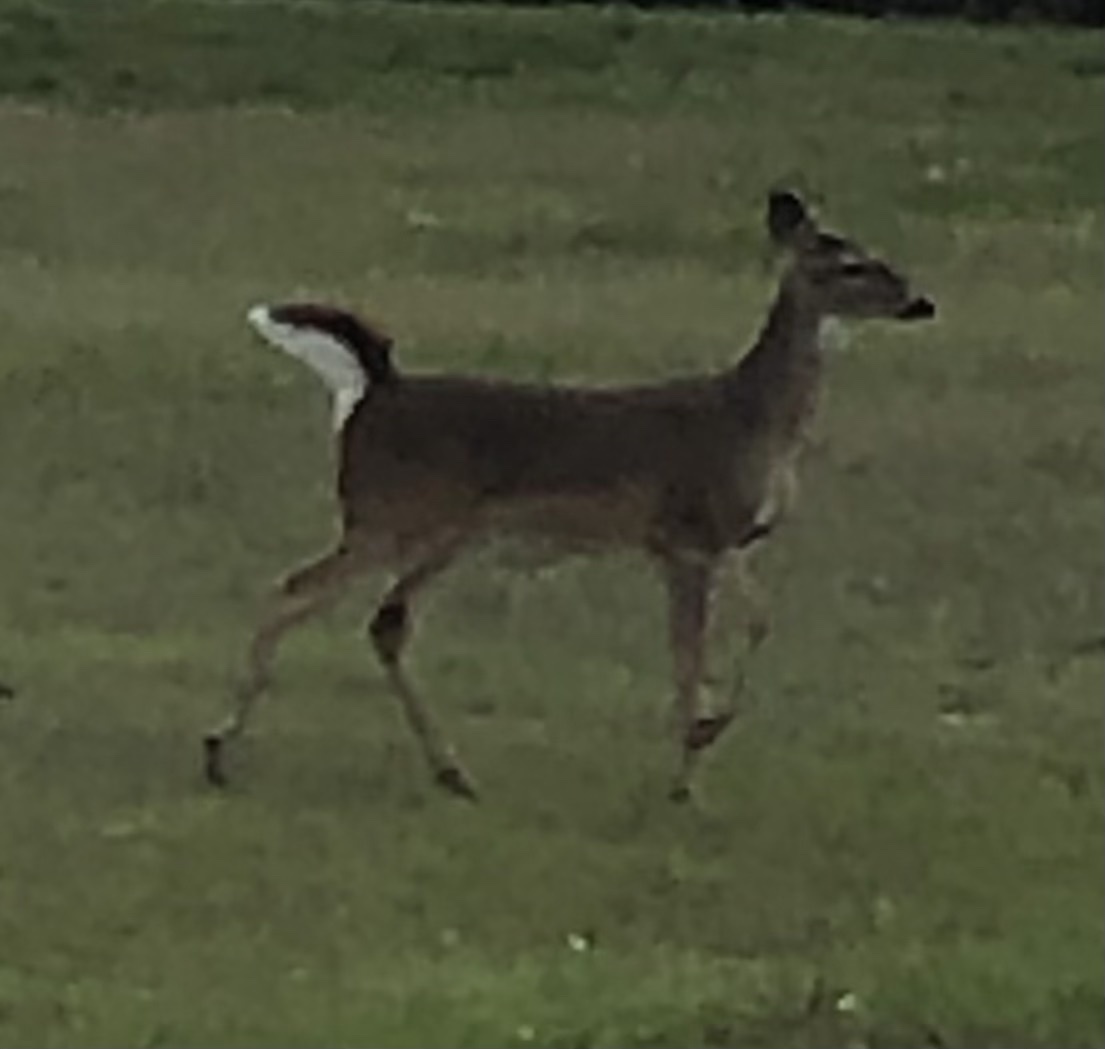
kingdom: Animalia
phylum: Chordata
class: Mammalia
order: Artiodactyla
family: Cervidae
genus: Odocoileus
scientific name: Odocoileus virginianus
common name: White-tailed deer
